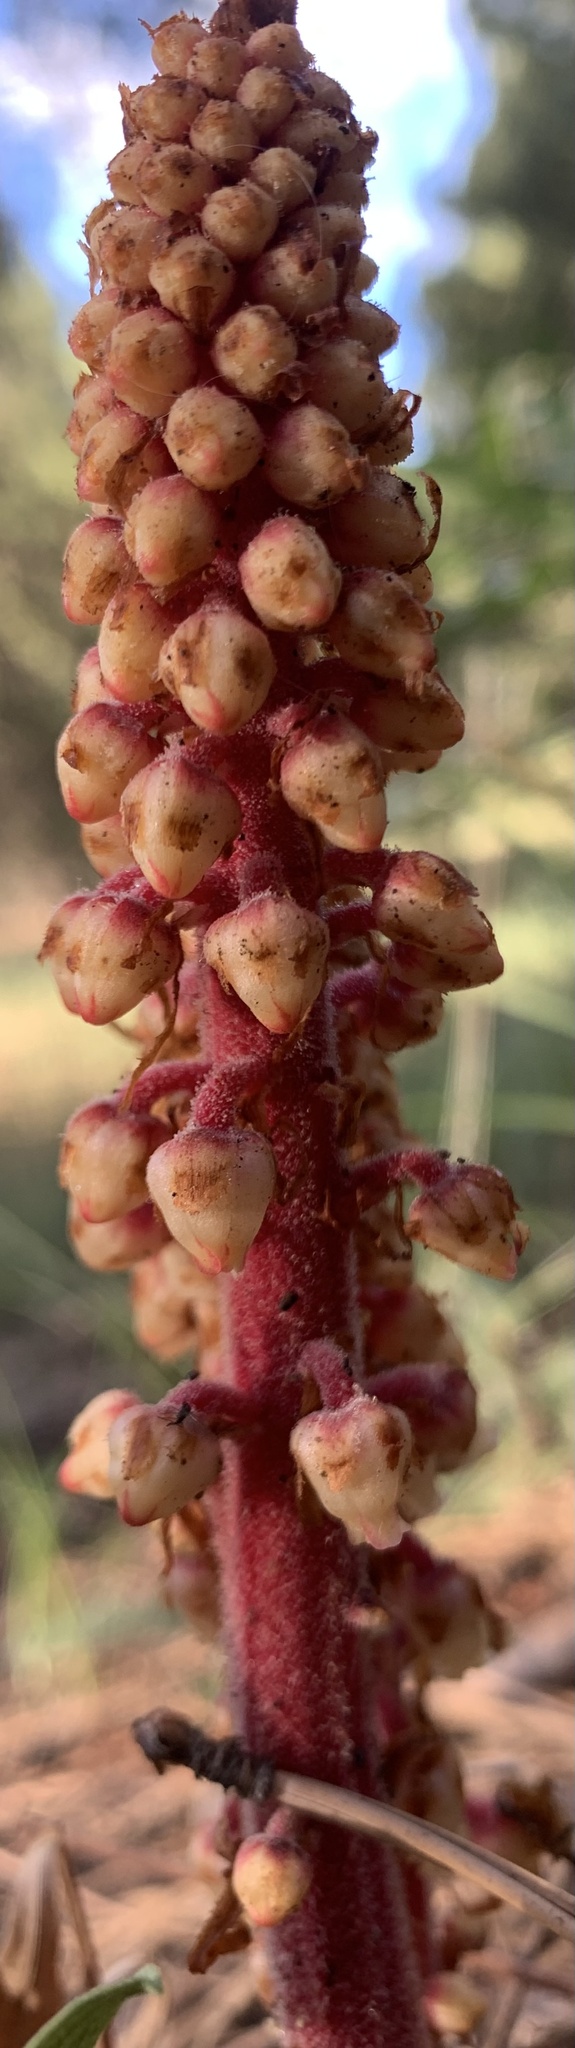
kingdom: Plantae
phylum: Tracheophyta
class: Magnoliopsida
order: Ericales
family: Ericaceae
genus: Pterospora
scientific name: Pterospora andromedea
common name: Giant bird's-nest
